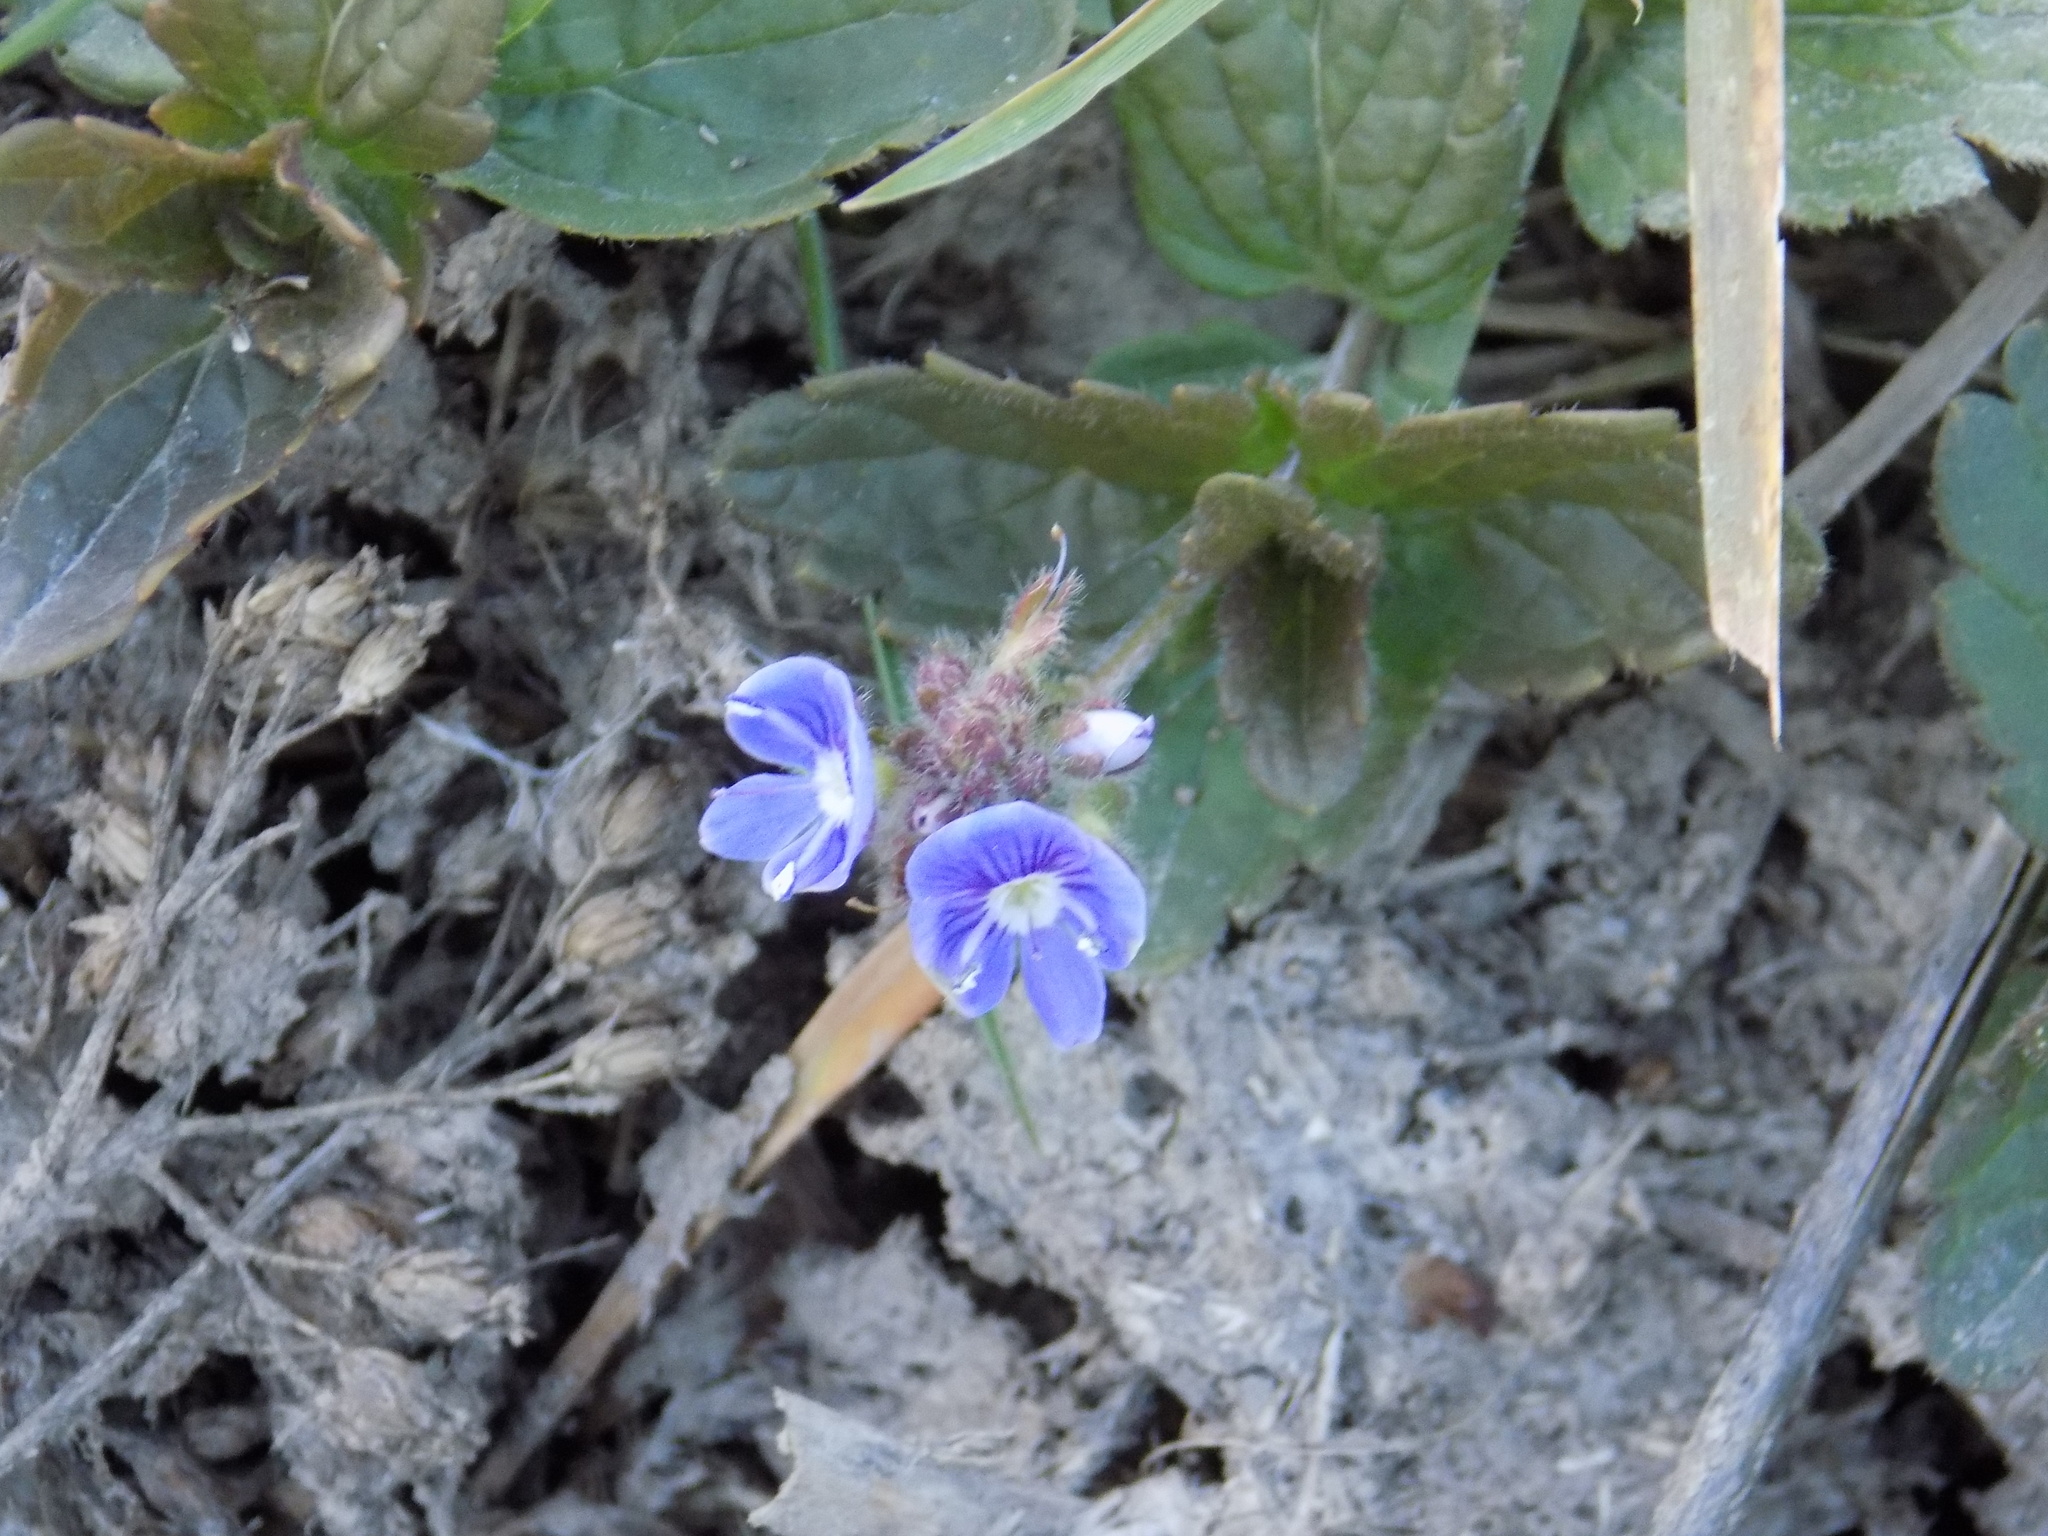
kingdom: Plantae
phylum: Tracheophyta
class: Magnoliopsida
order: Lamiales
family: Plantaginaceae
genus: Veronica
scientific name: Veronica chamaedrys
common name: Germander speedwell
